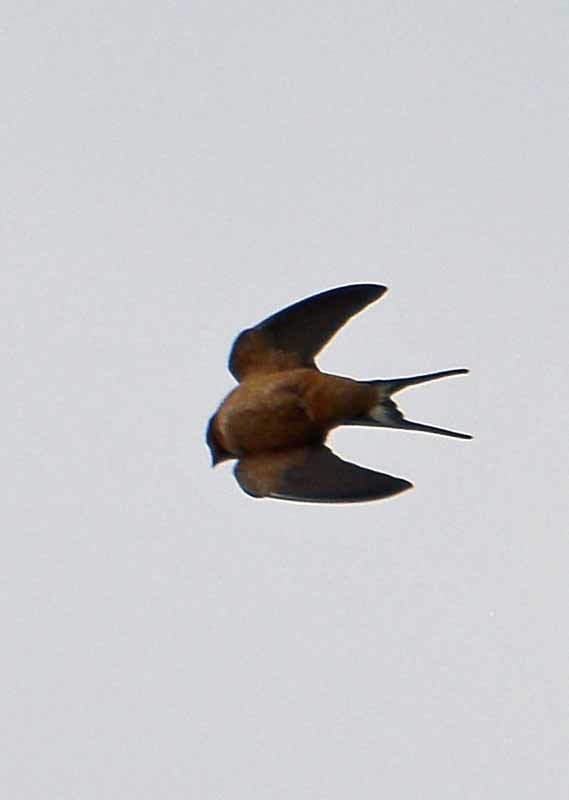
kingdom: Animalia
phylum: Chordata
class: Aves
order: Passeriformes
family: Hirundinidae
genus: Hirundo
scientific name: Hirundo rustica
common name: Barn swallow
